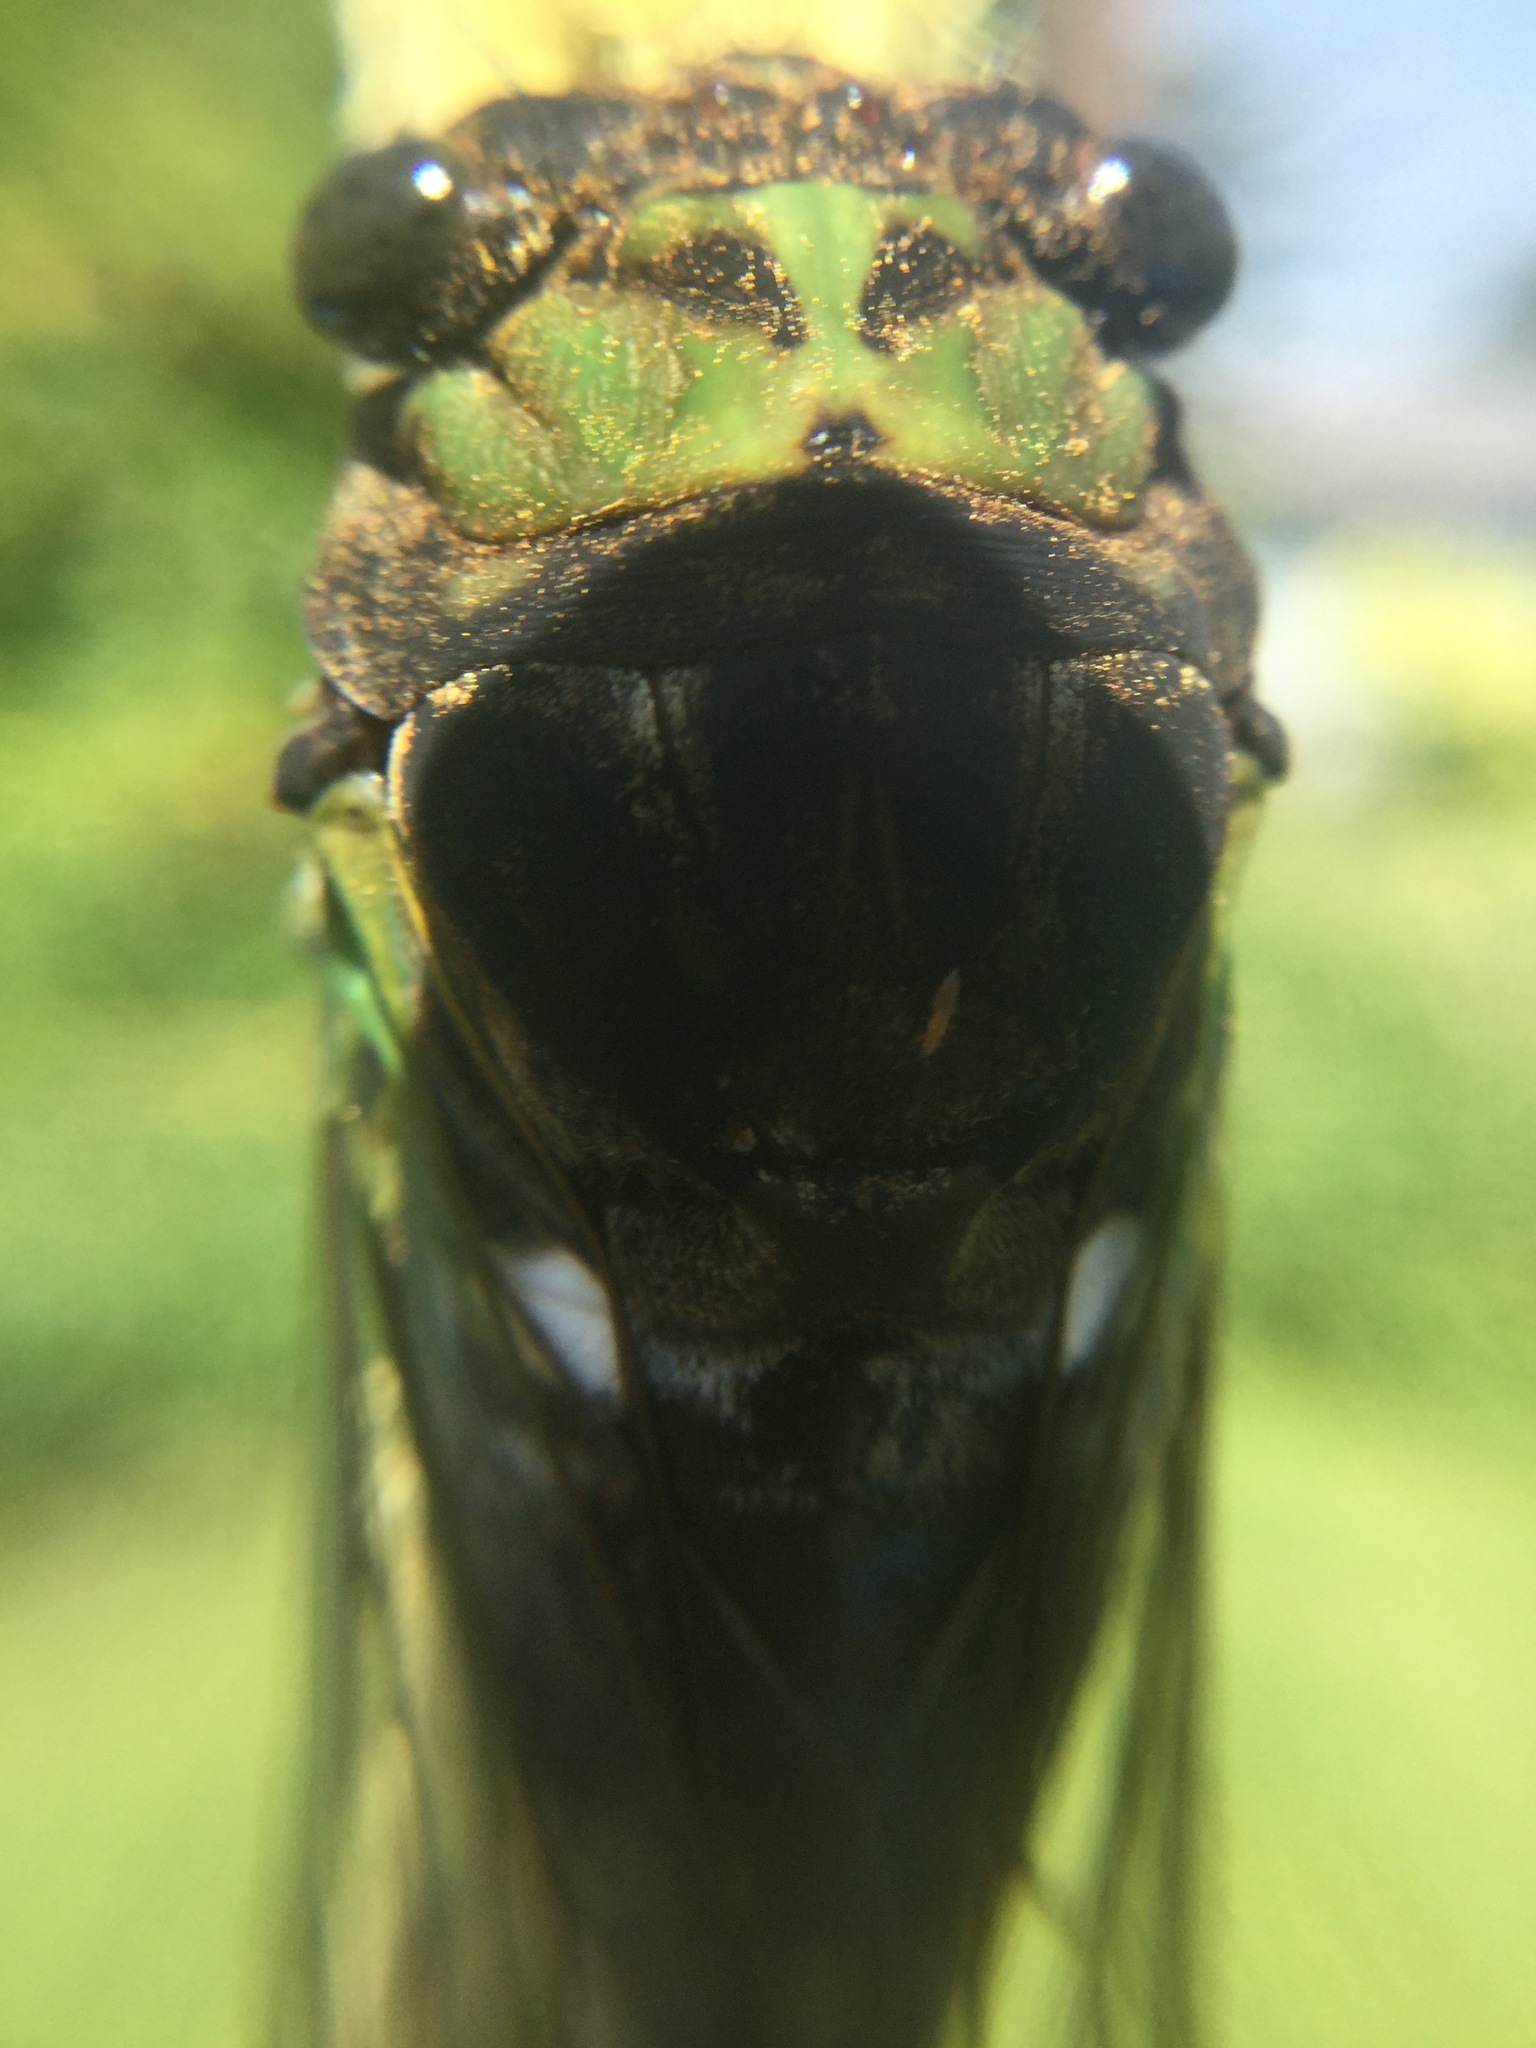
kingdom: Animalia
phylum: Arthropoda
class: Insecta
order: Hemiptera
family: Cicadidae
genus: Neotibicen
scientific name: Neotibicen tibicen
